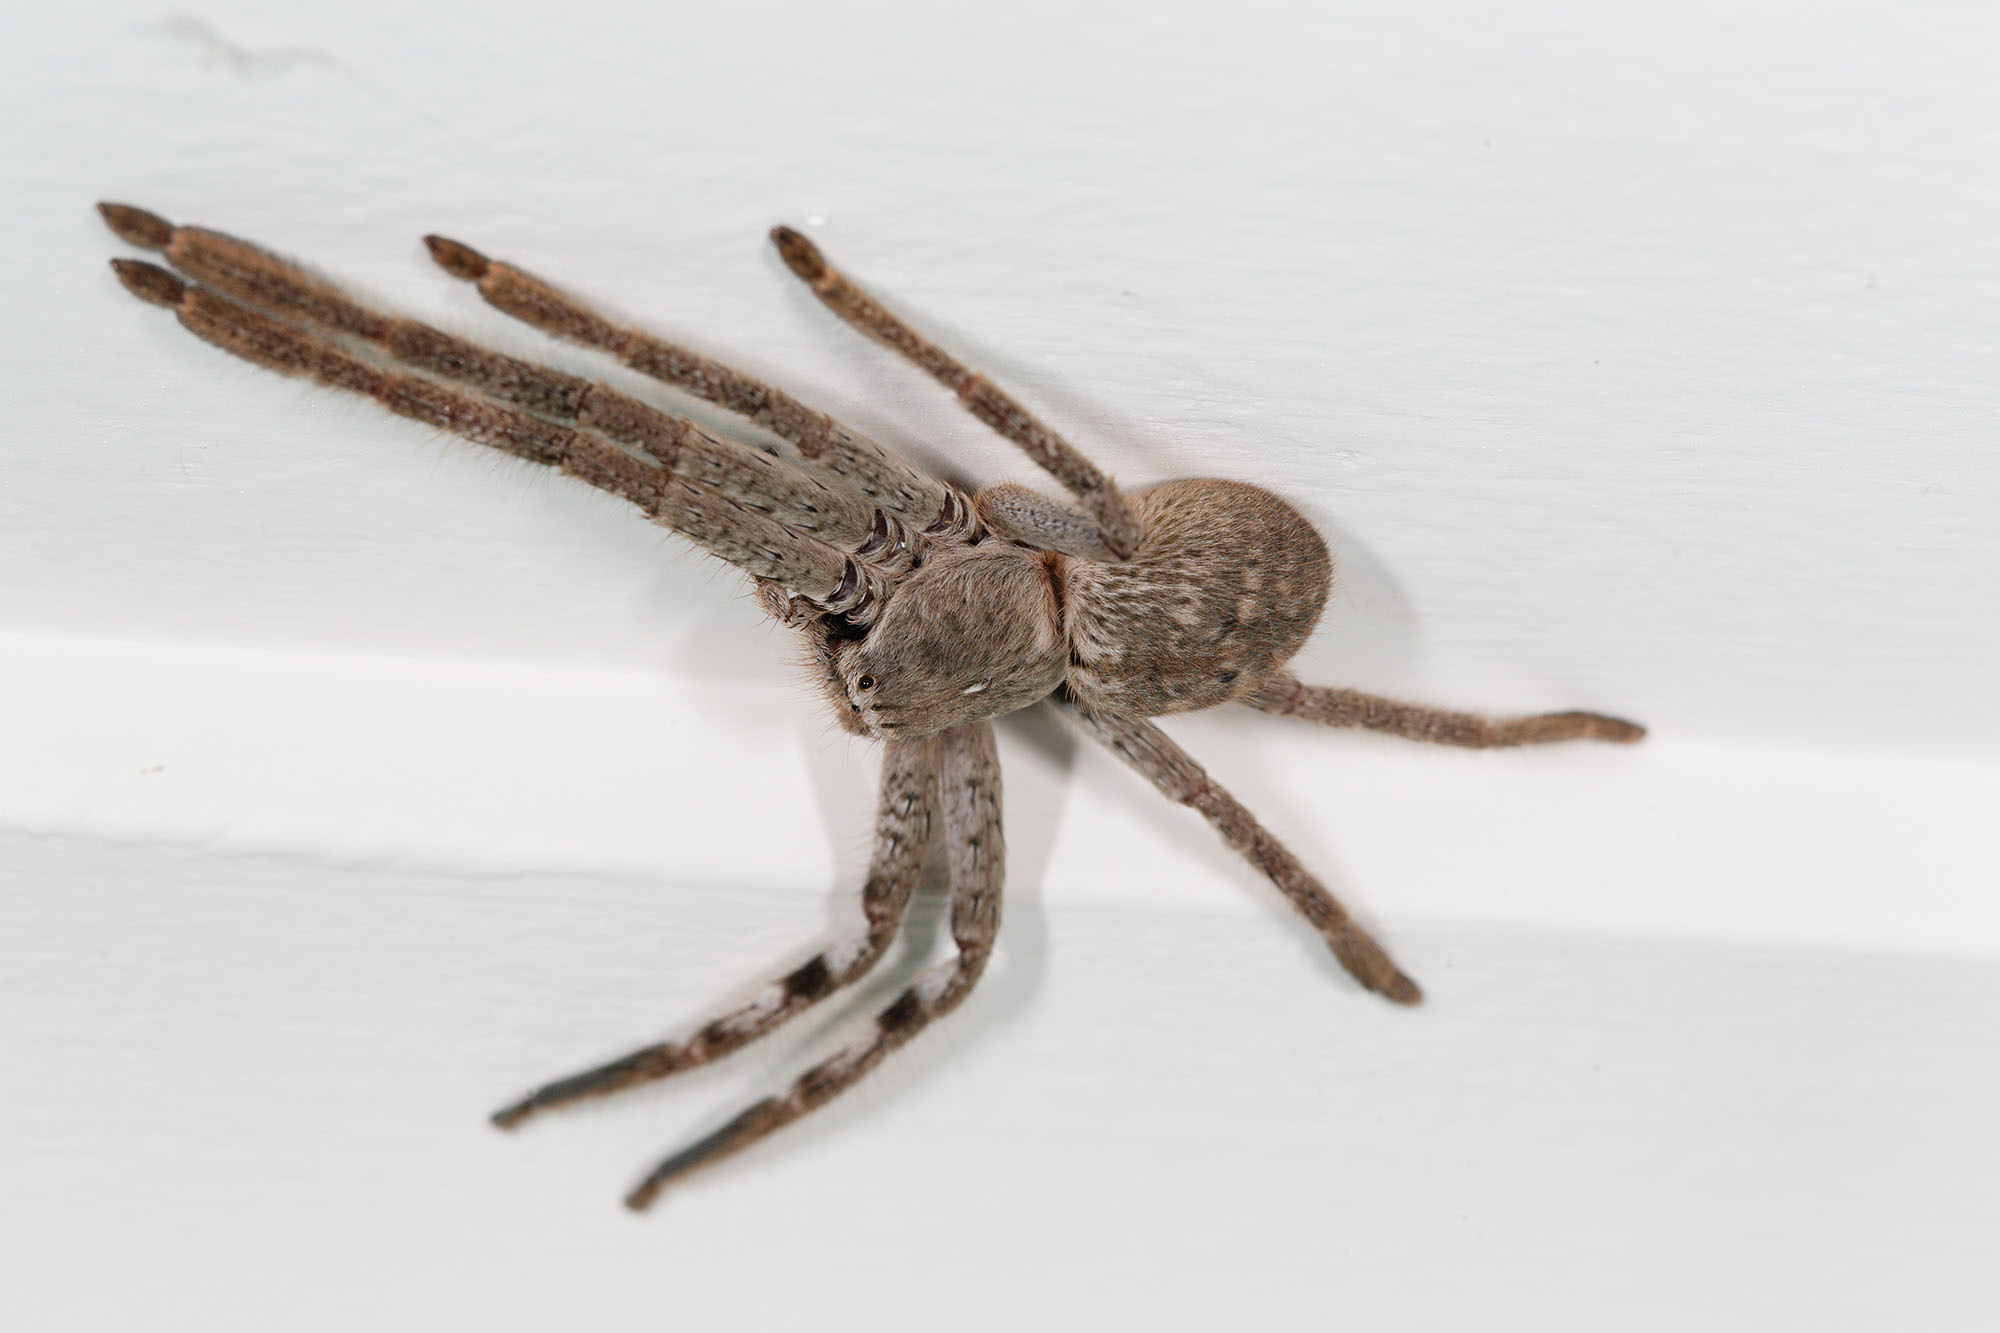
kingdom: Animalia
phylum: Arthropoda
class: Arachnida
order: Araneae
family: Sparassidae
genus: Isopedella
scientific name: Isopedella victorialis
